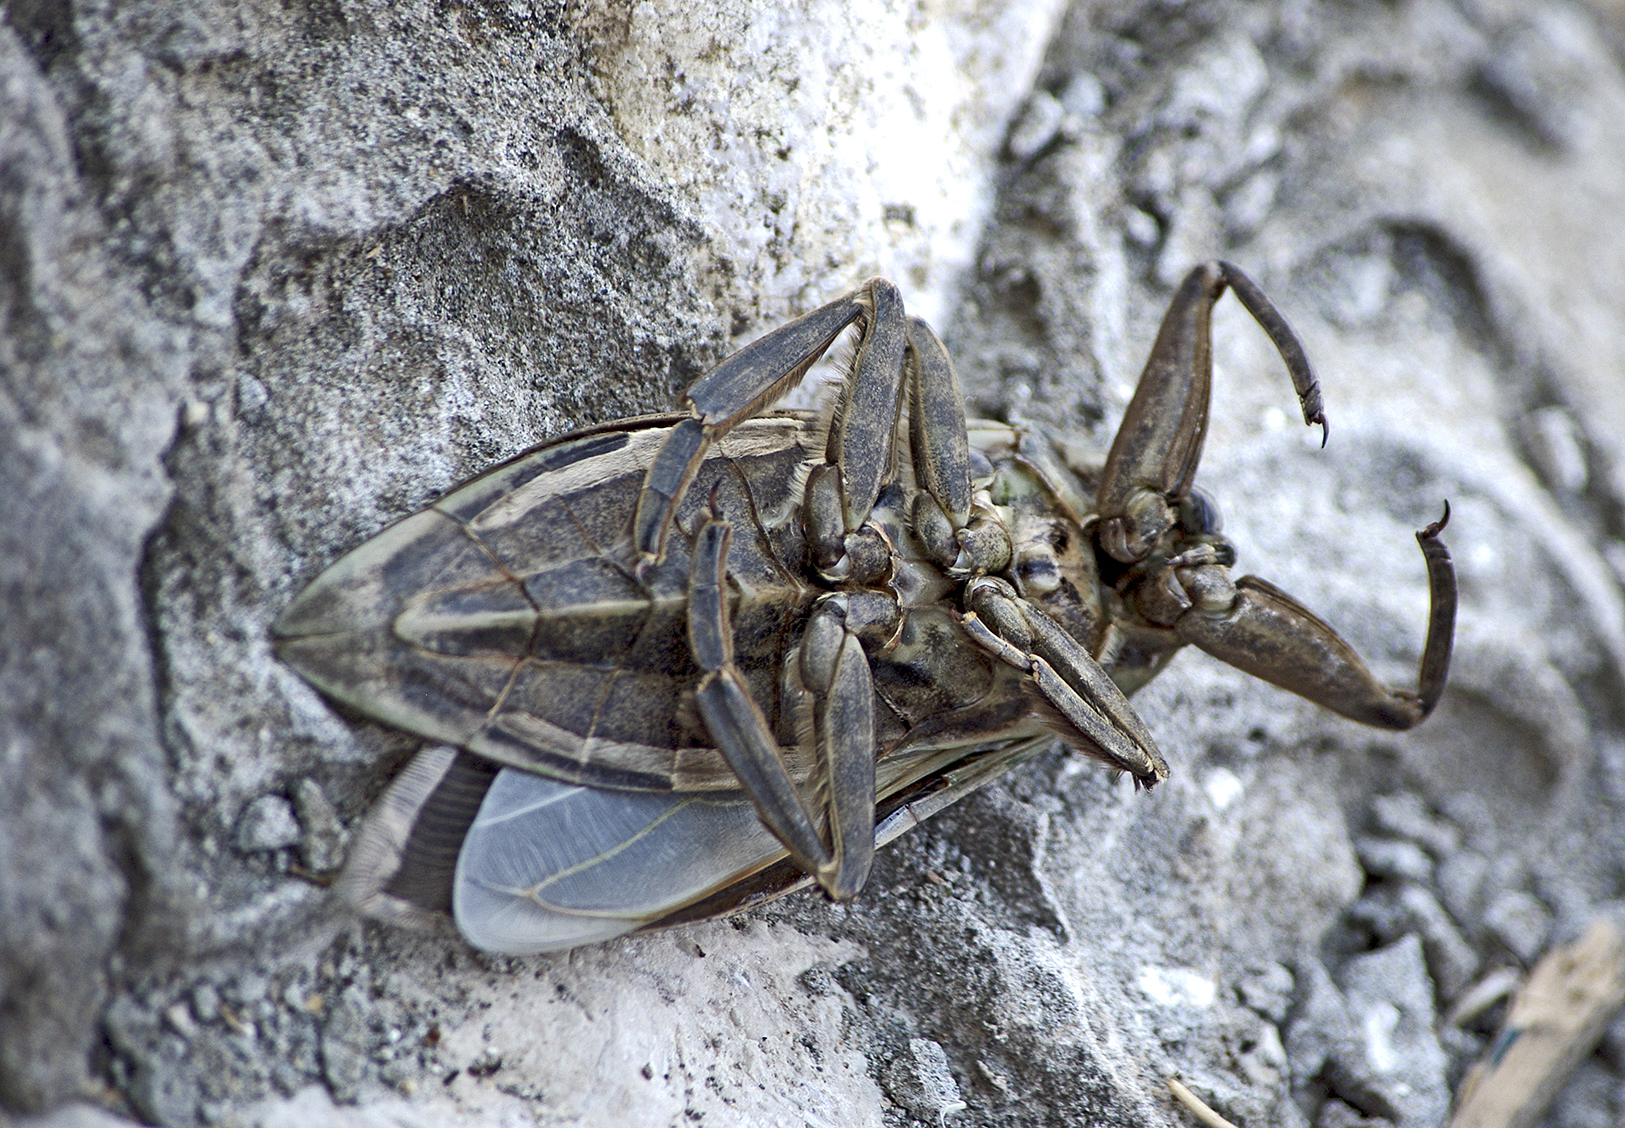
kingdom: Animalia
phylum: Arthropoda
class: Insecta
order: Hemiptera
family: Belostomatidae
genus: Lethocerus
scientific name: Lethocerus patruelis
